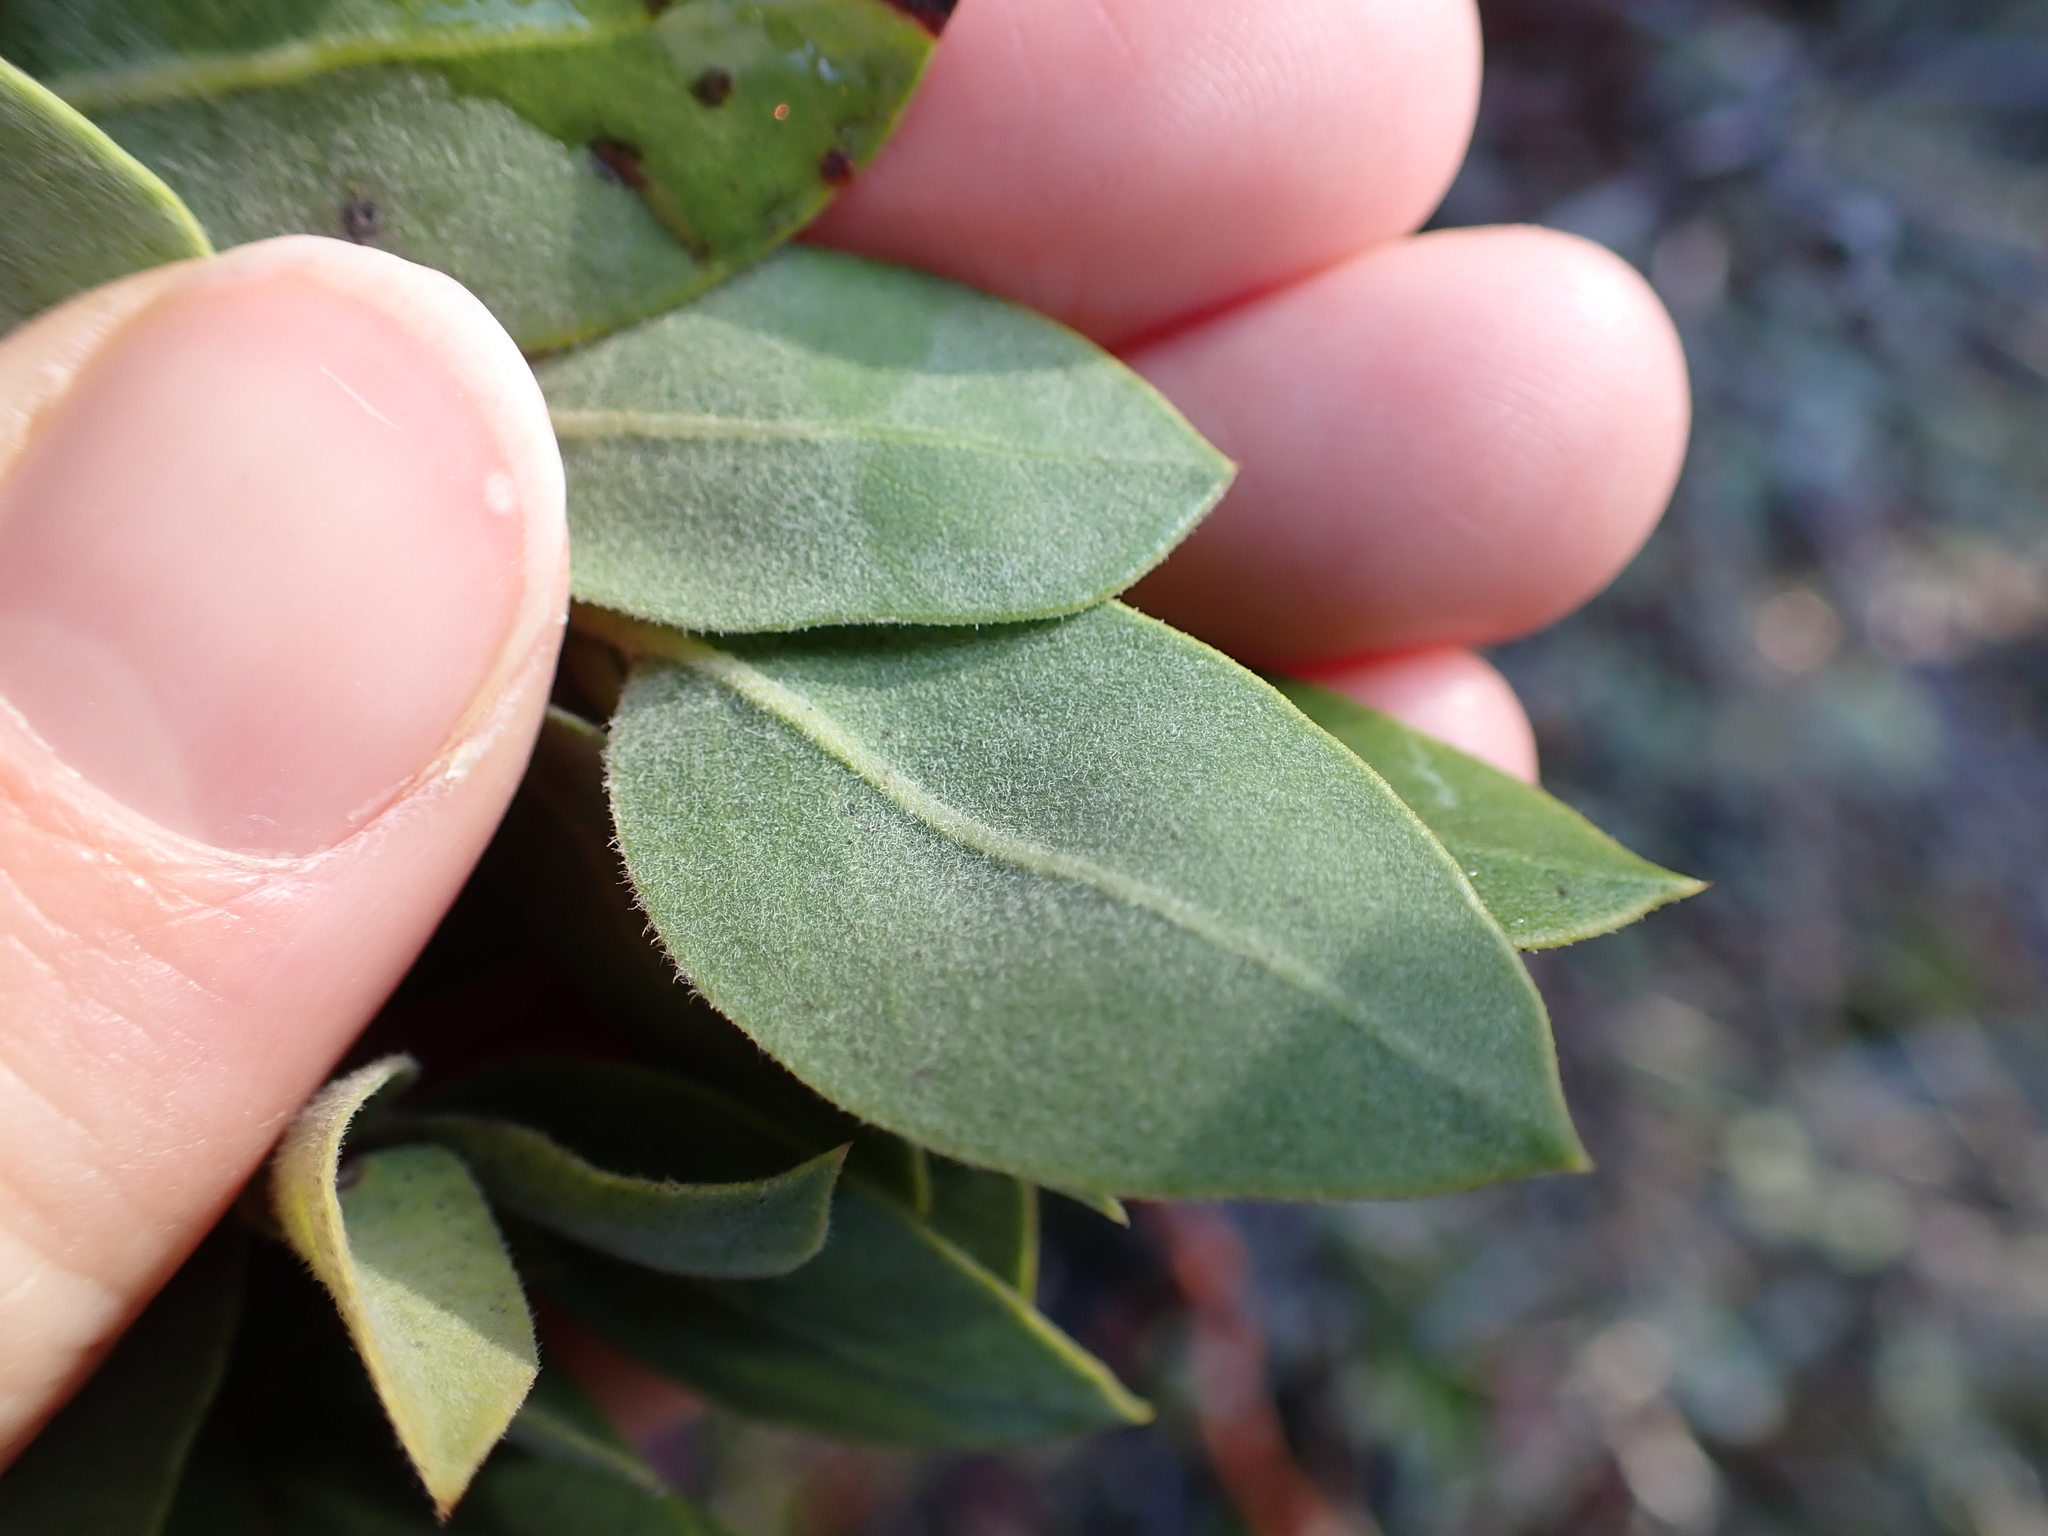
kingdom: Plantae
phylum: Tracheophyta
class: Magnoliopsida
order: Ericales
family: Ericaceae
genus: Arctostaphylos
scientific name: Arctostaphylos columbiana
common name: Bristly bearberry
